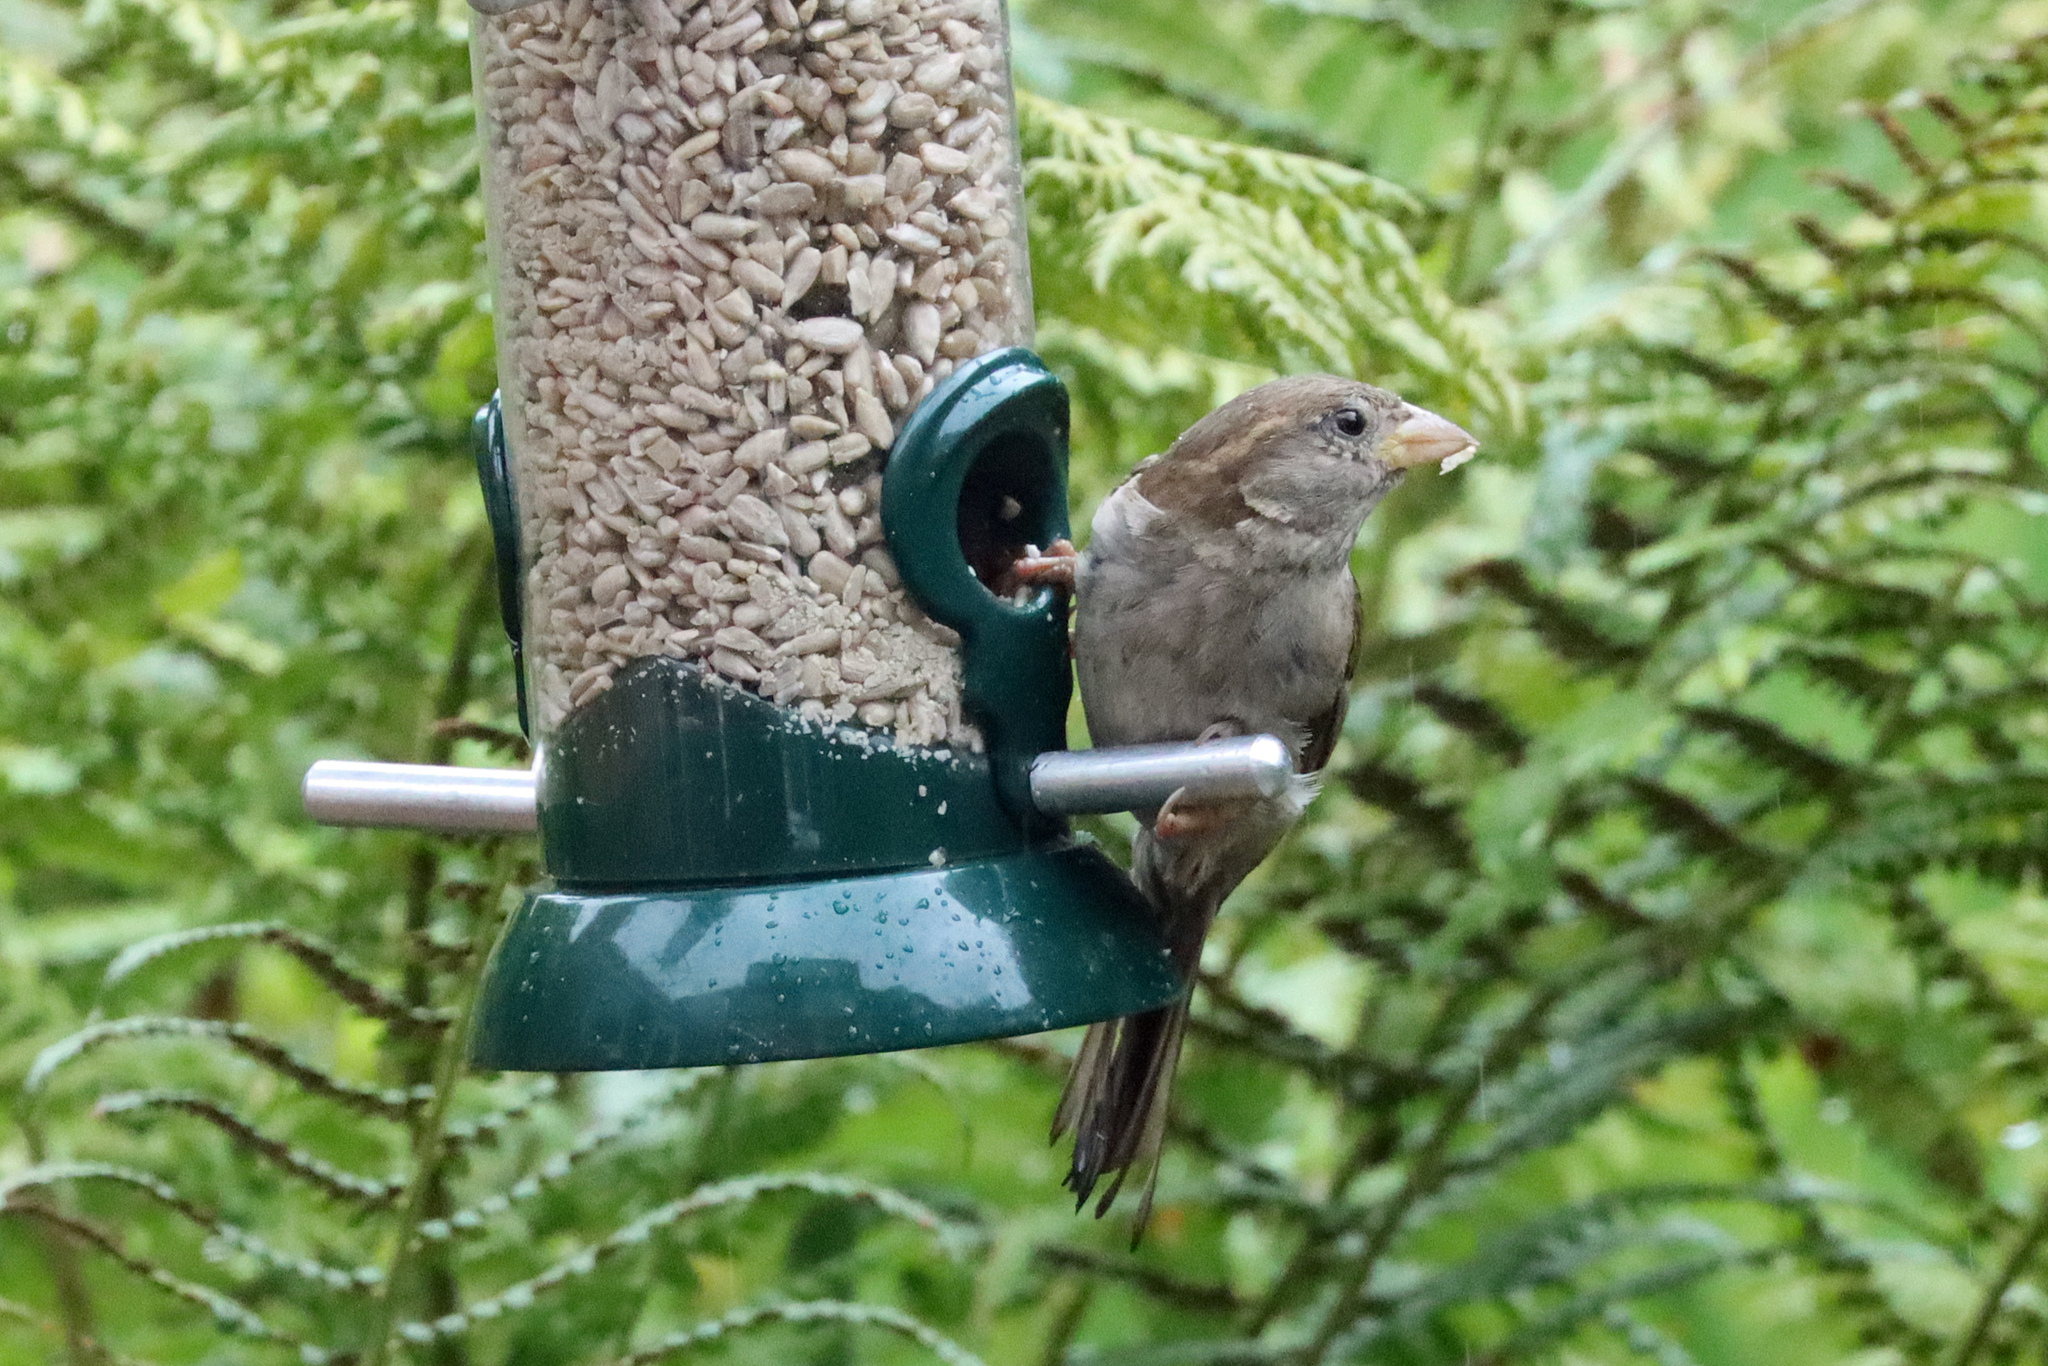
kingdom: Animalia
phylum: Chordata
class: Aves
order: Passeriformes
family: Passeridae
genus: Passer
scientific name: Passer domesticus
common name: House sparrow
